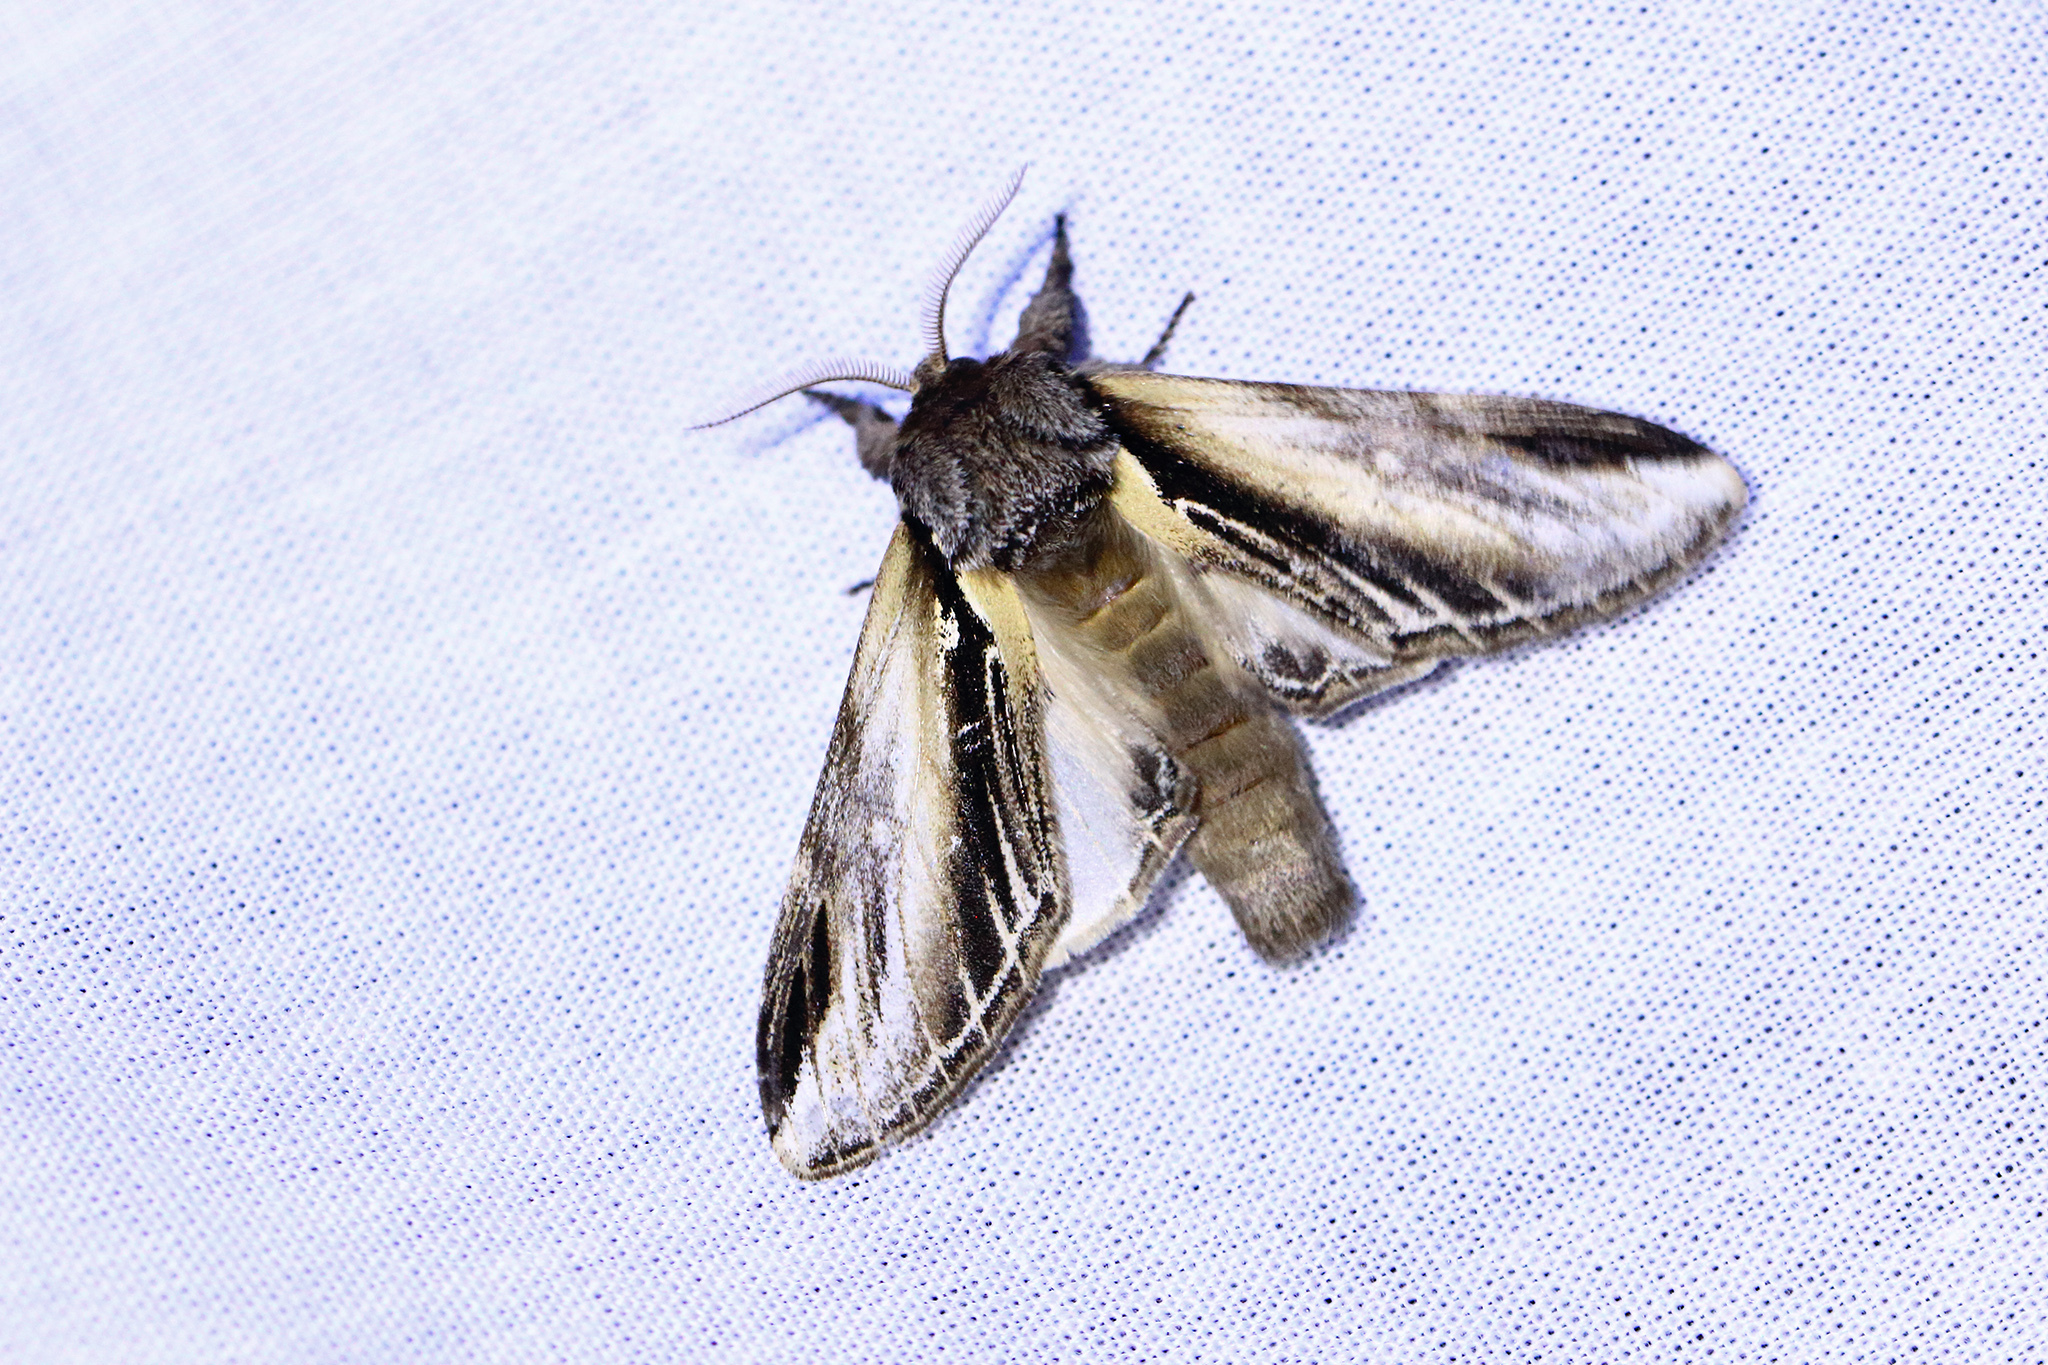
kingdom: Animalia
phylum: Arthropoda
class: Insecta
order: Lepidoptera
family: Notodontidae
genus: Pheosia
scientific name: Pheosia tremula
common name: Swallow prominent
